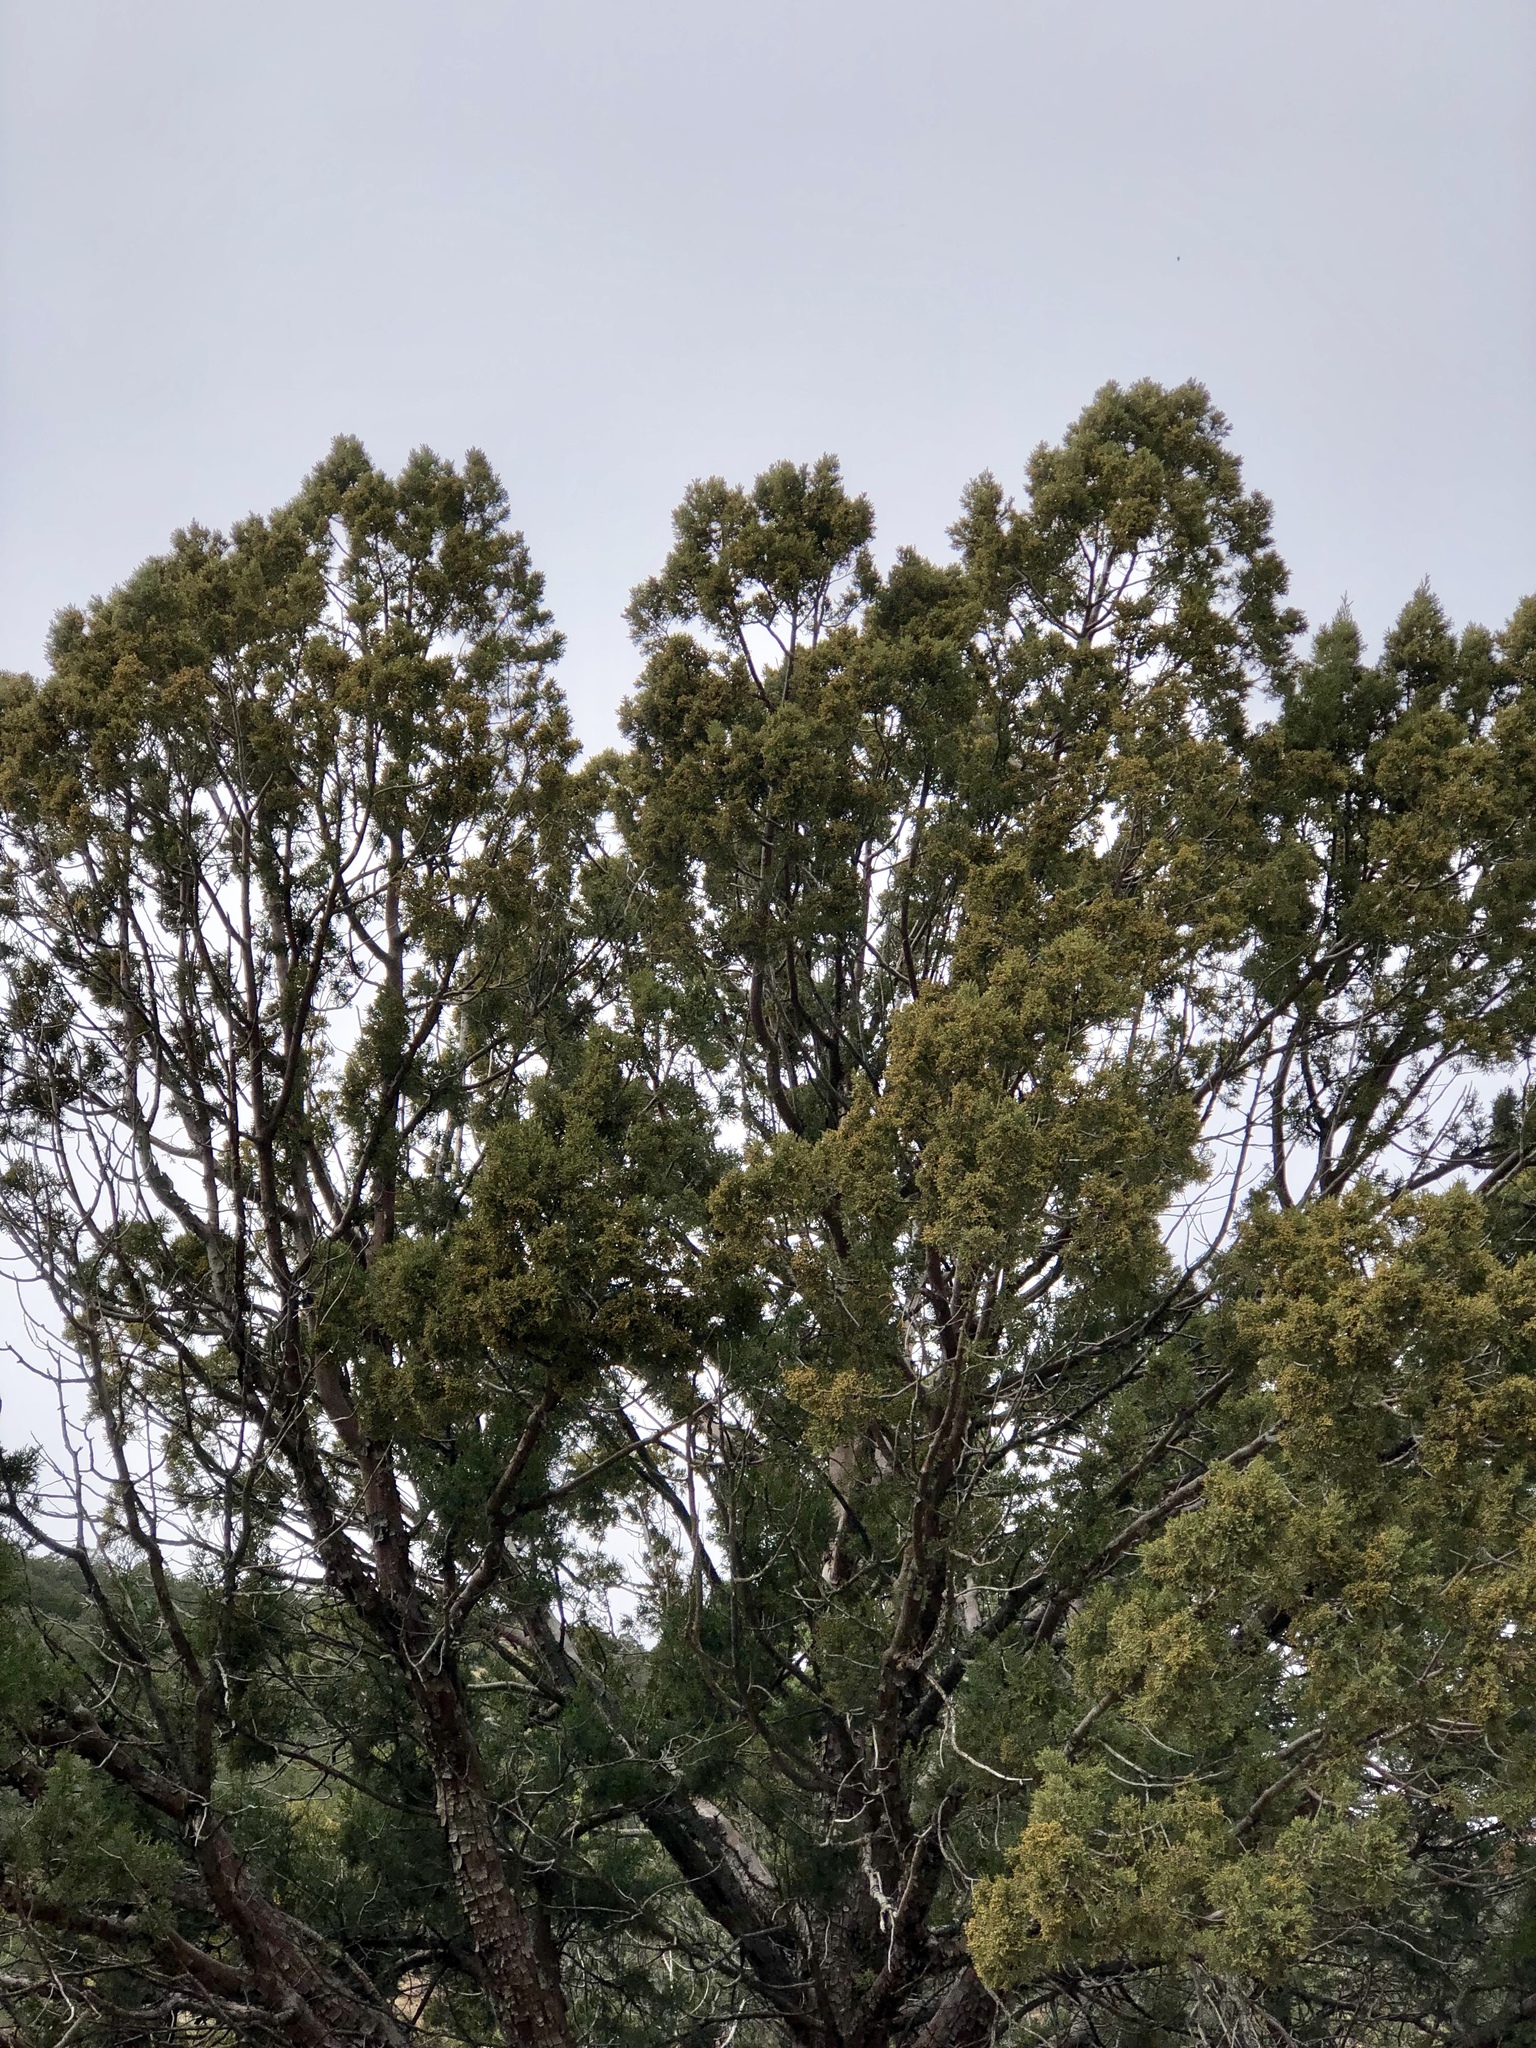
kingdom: Plantae
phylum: Tracheophyta
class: Pinopsida
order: Pinales
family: Cupressaceae
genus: Juniperus
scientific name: Juniperus deppeana
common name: Alligator juniper
